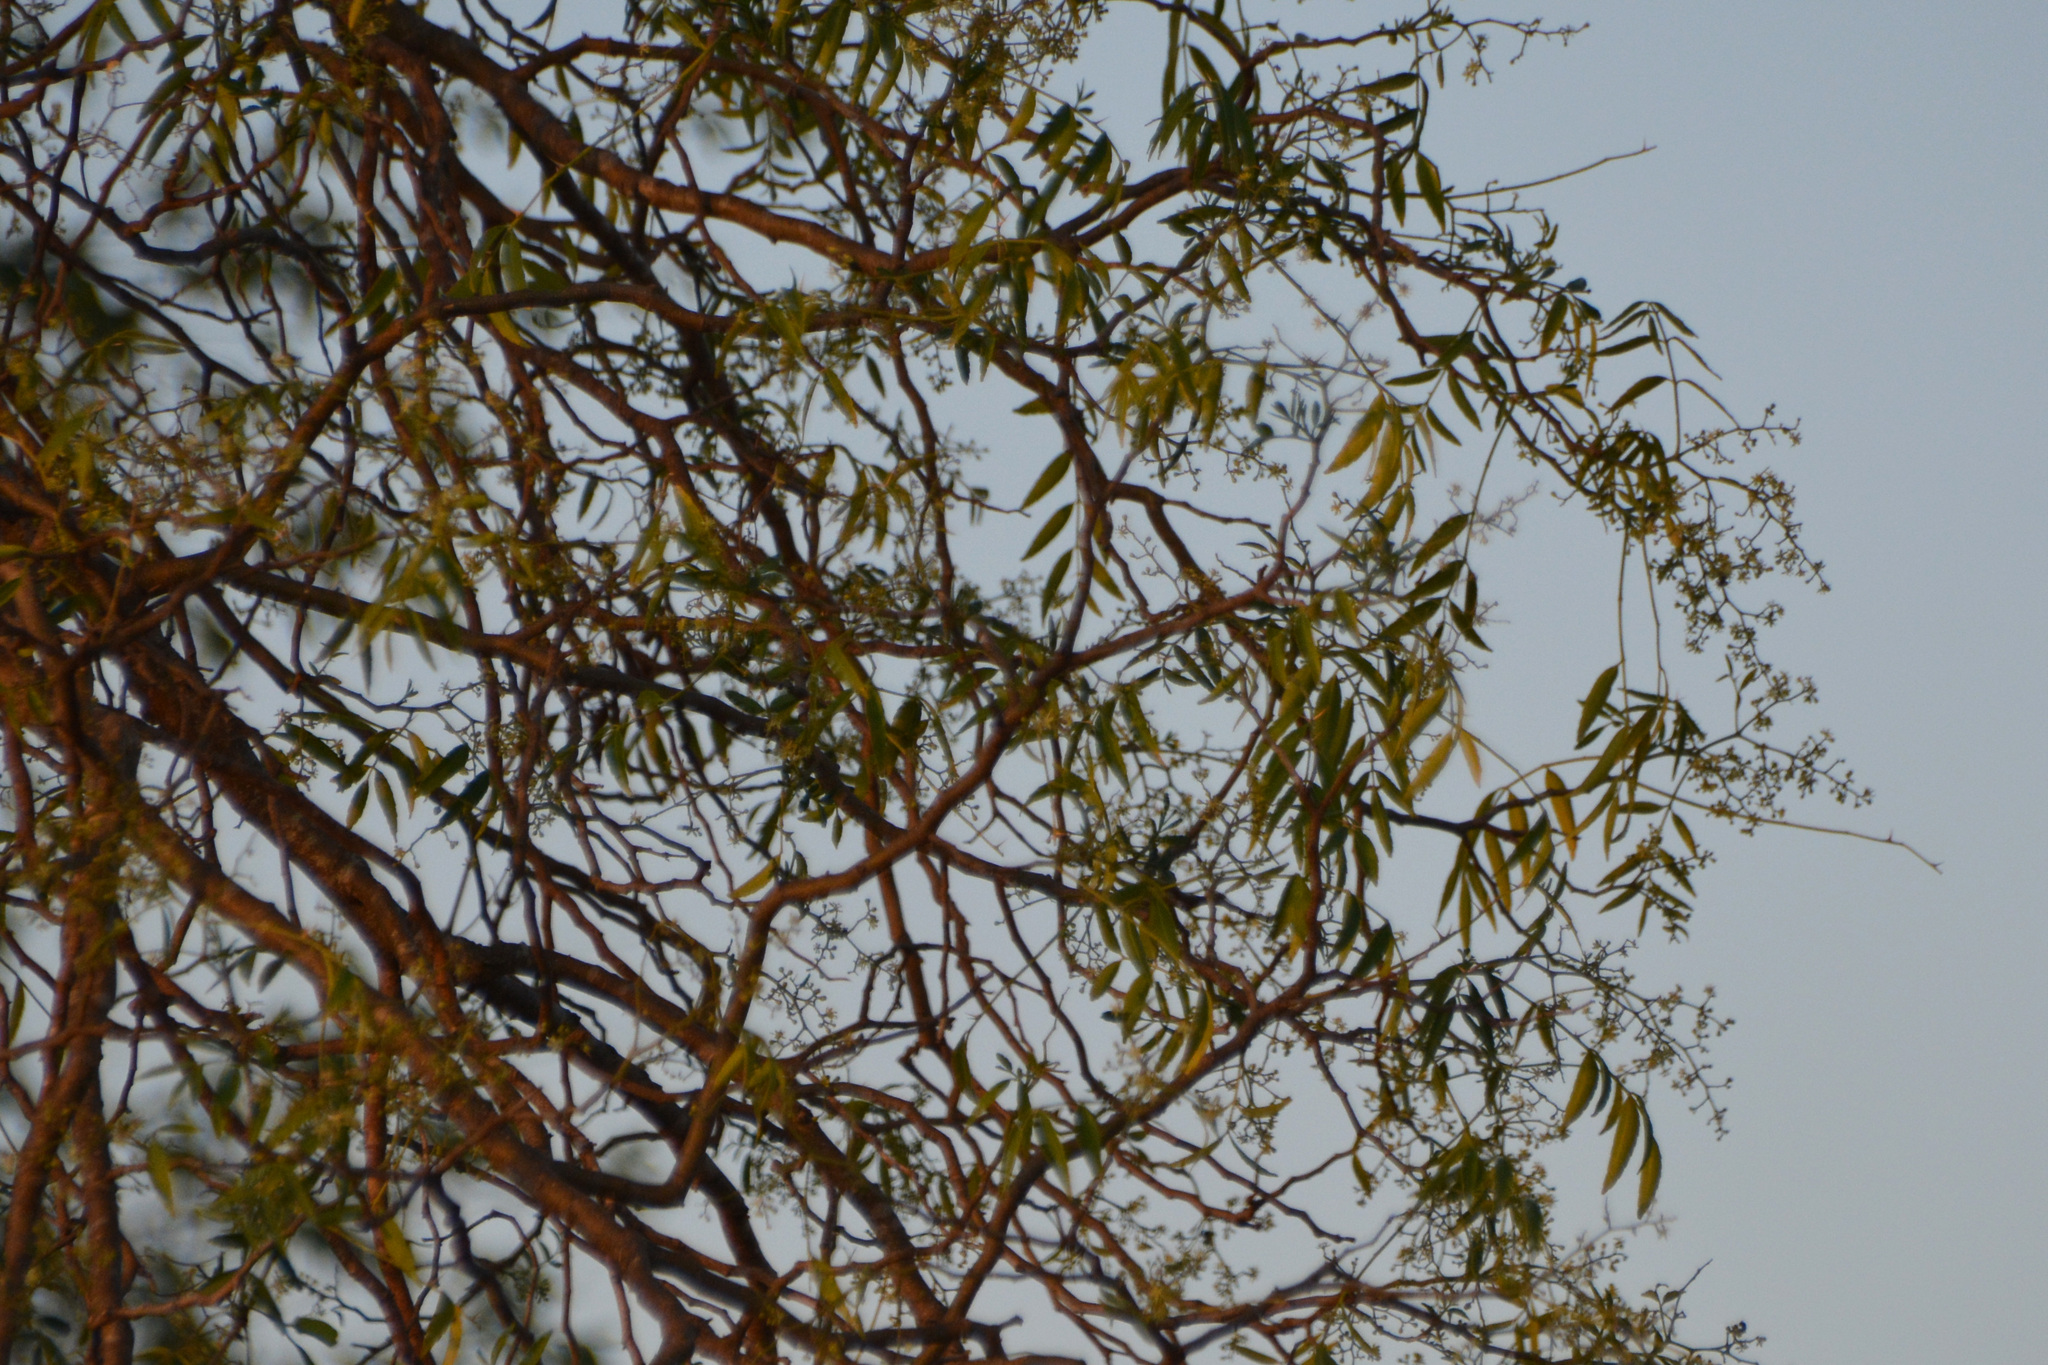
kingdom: Plantae
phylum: Tracheophyta
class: Magnoliopsida
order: Sapindales
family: Rutaceae
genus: Zanthoxylum
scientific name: Zanthoxylum coco
